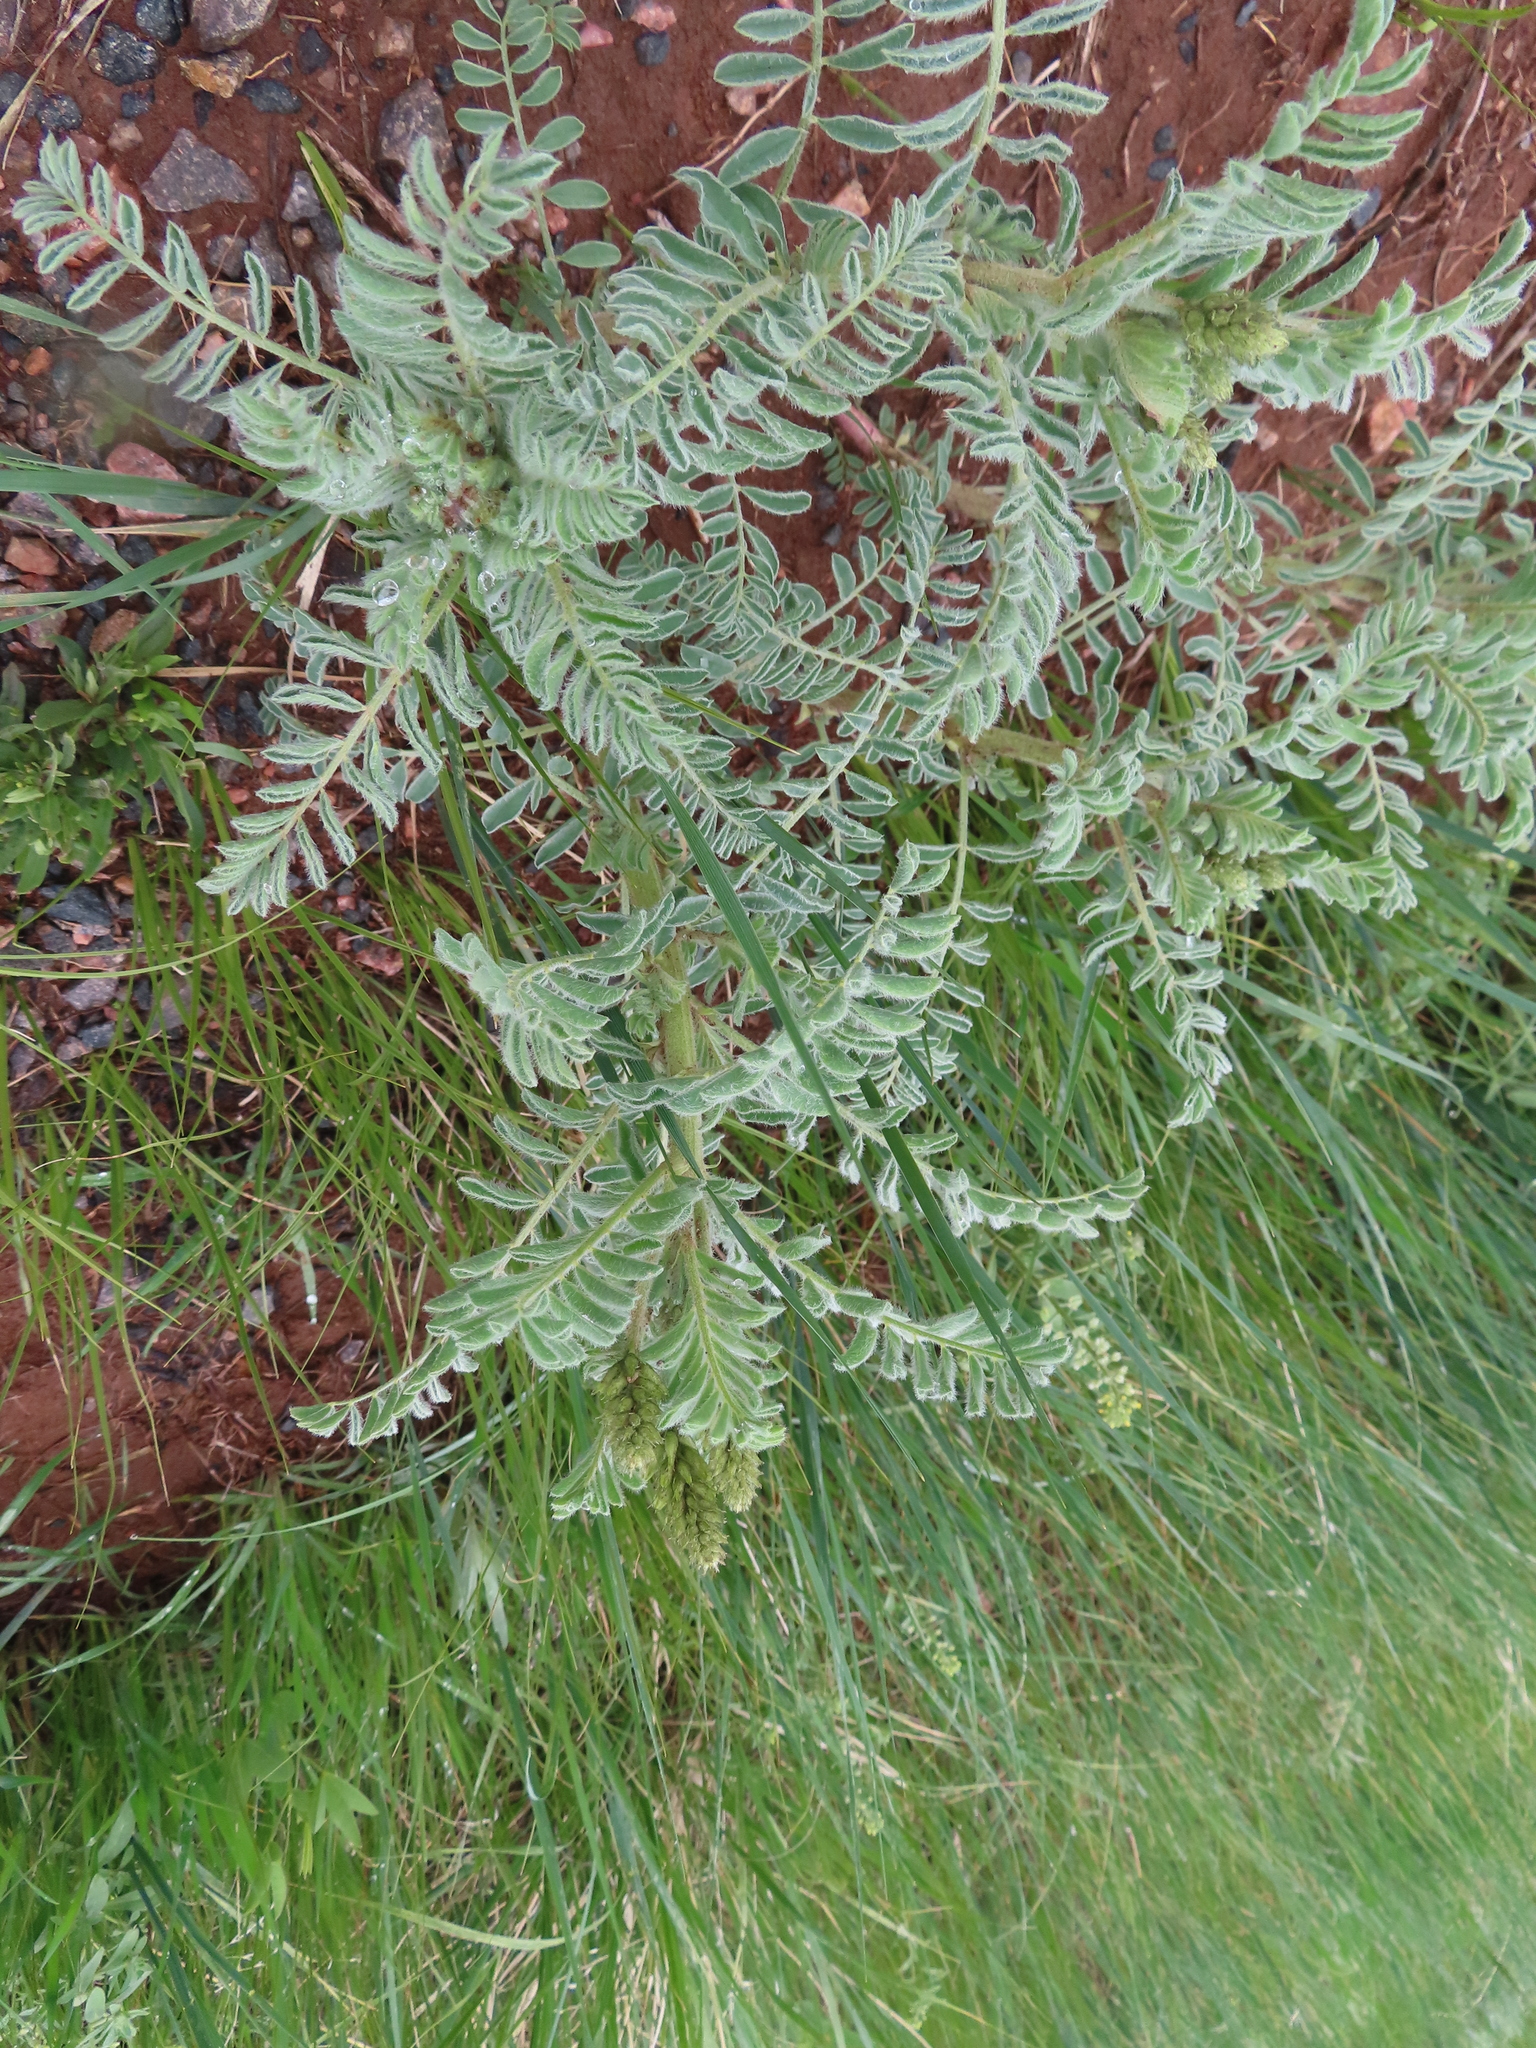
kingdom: Plantae
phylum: Tracheophyta
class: Magnoliopsida
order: Fabales
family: Fabaceae
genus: Astragalus
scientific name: Astragalus drummondii
